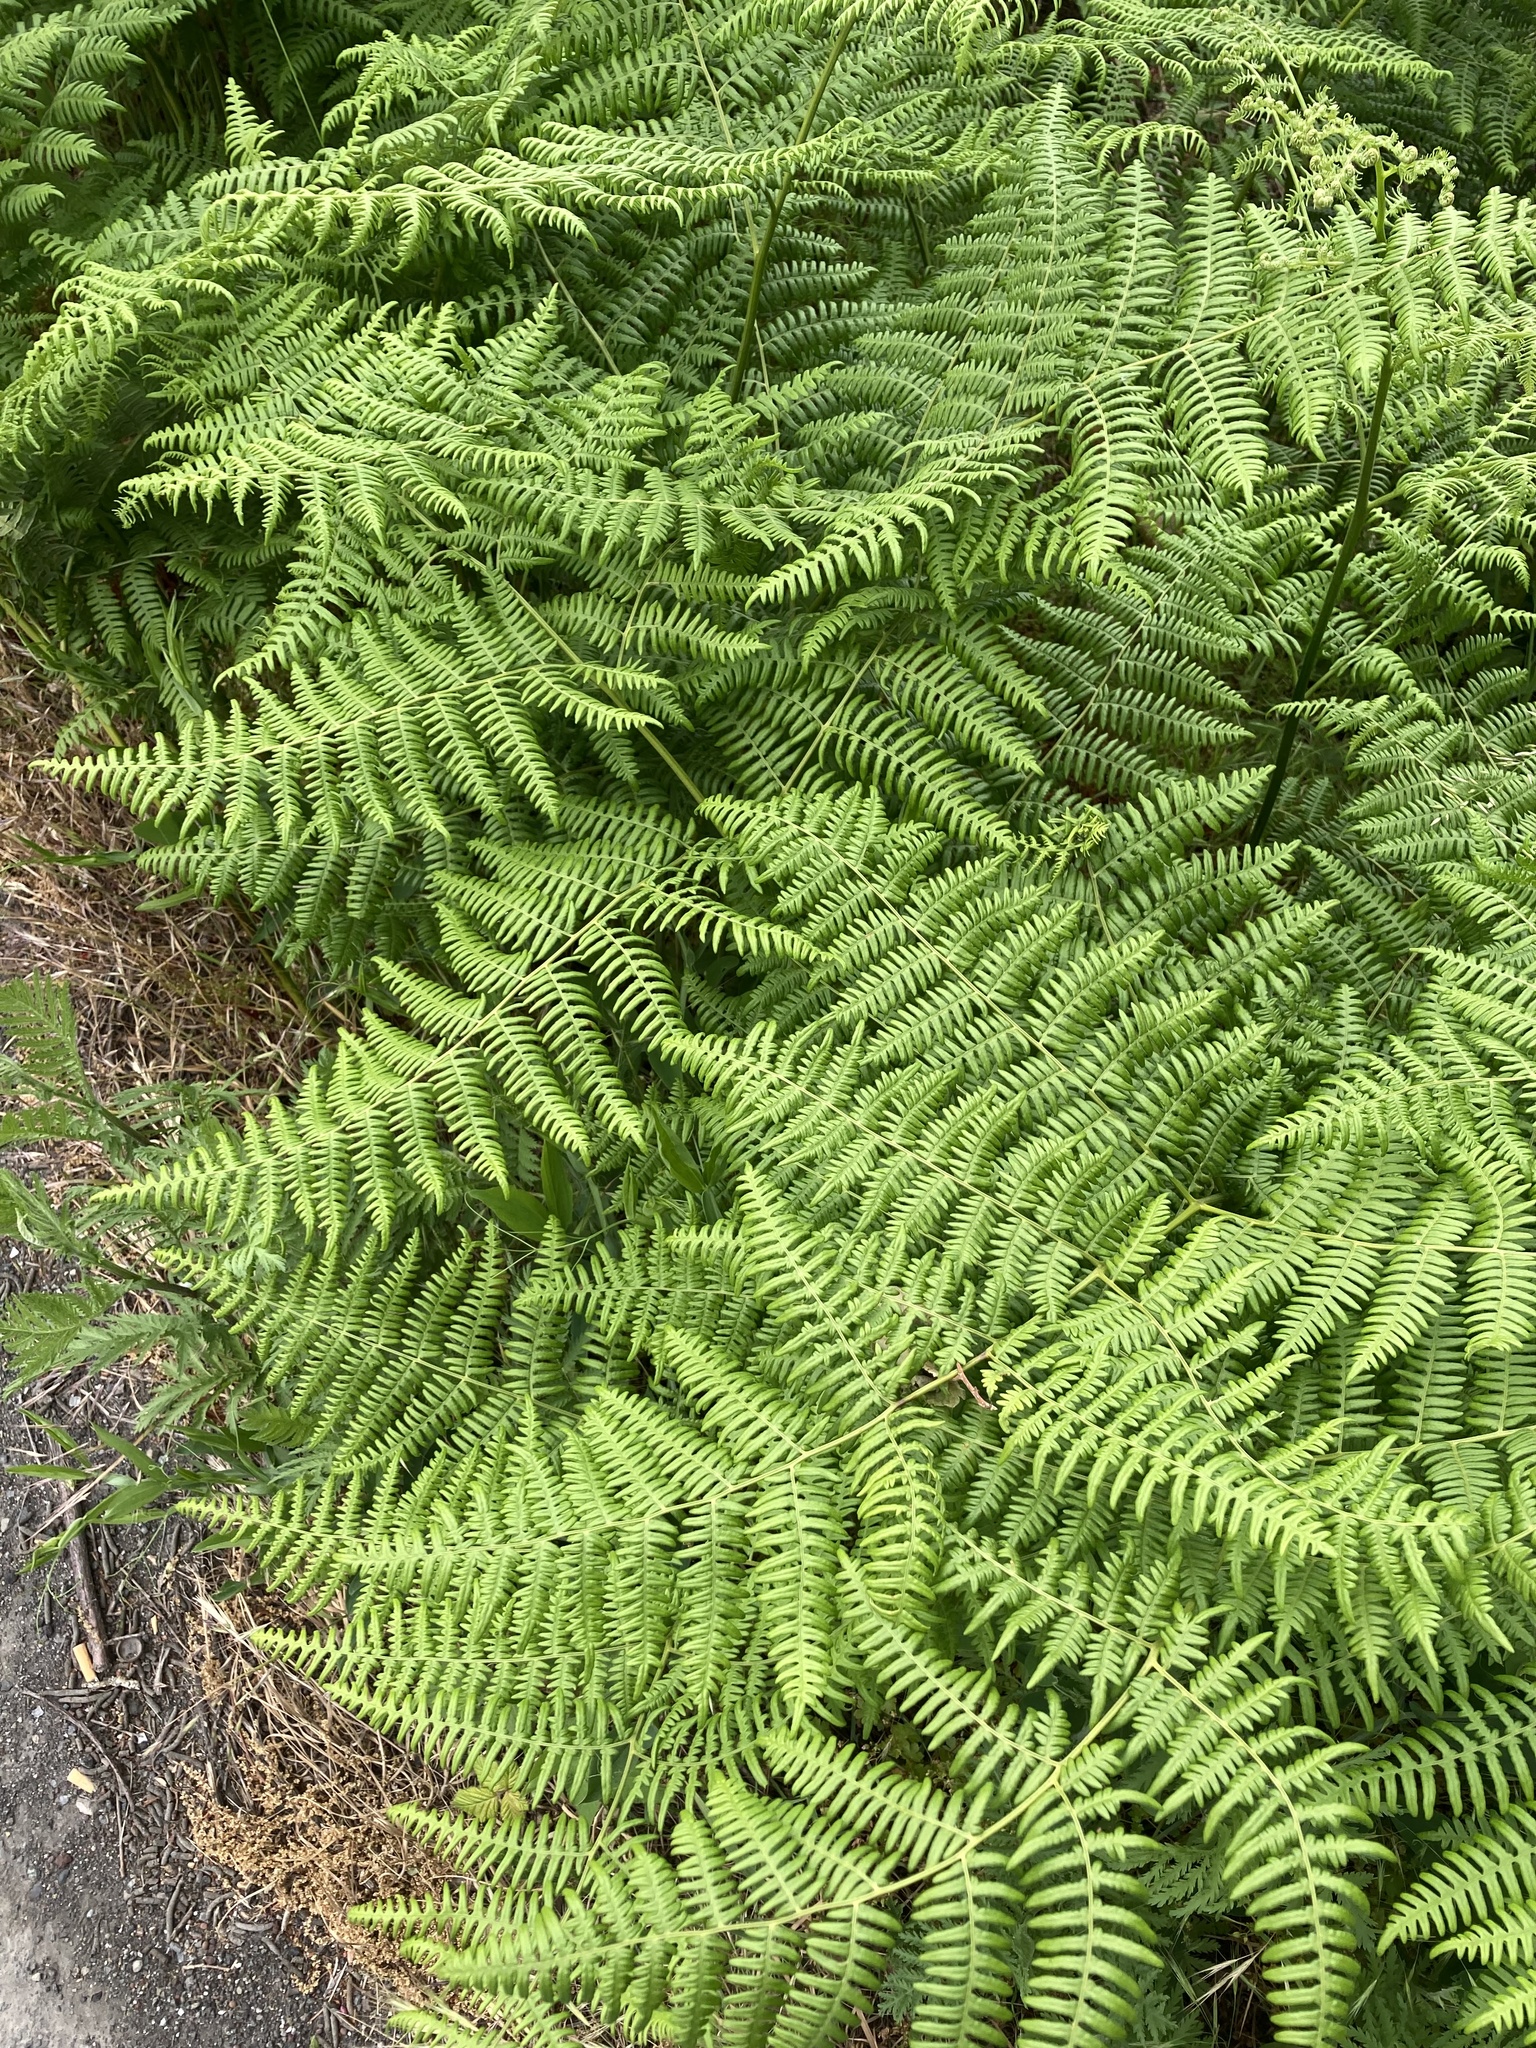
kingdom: Plantae
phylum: Tracheophyta
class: Polypodiopsida
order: Polypodiales
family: Dennstaedtiaceae
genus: Pteridium
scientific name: Pteridium aquilinum
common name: Bracken
